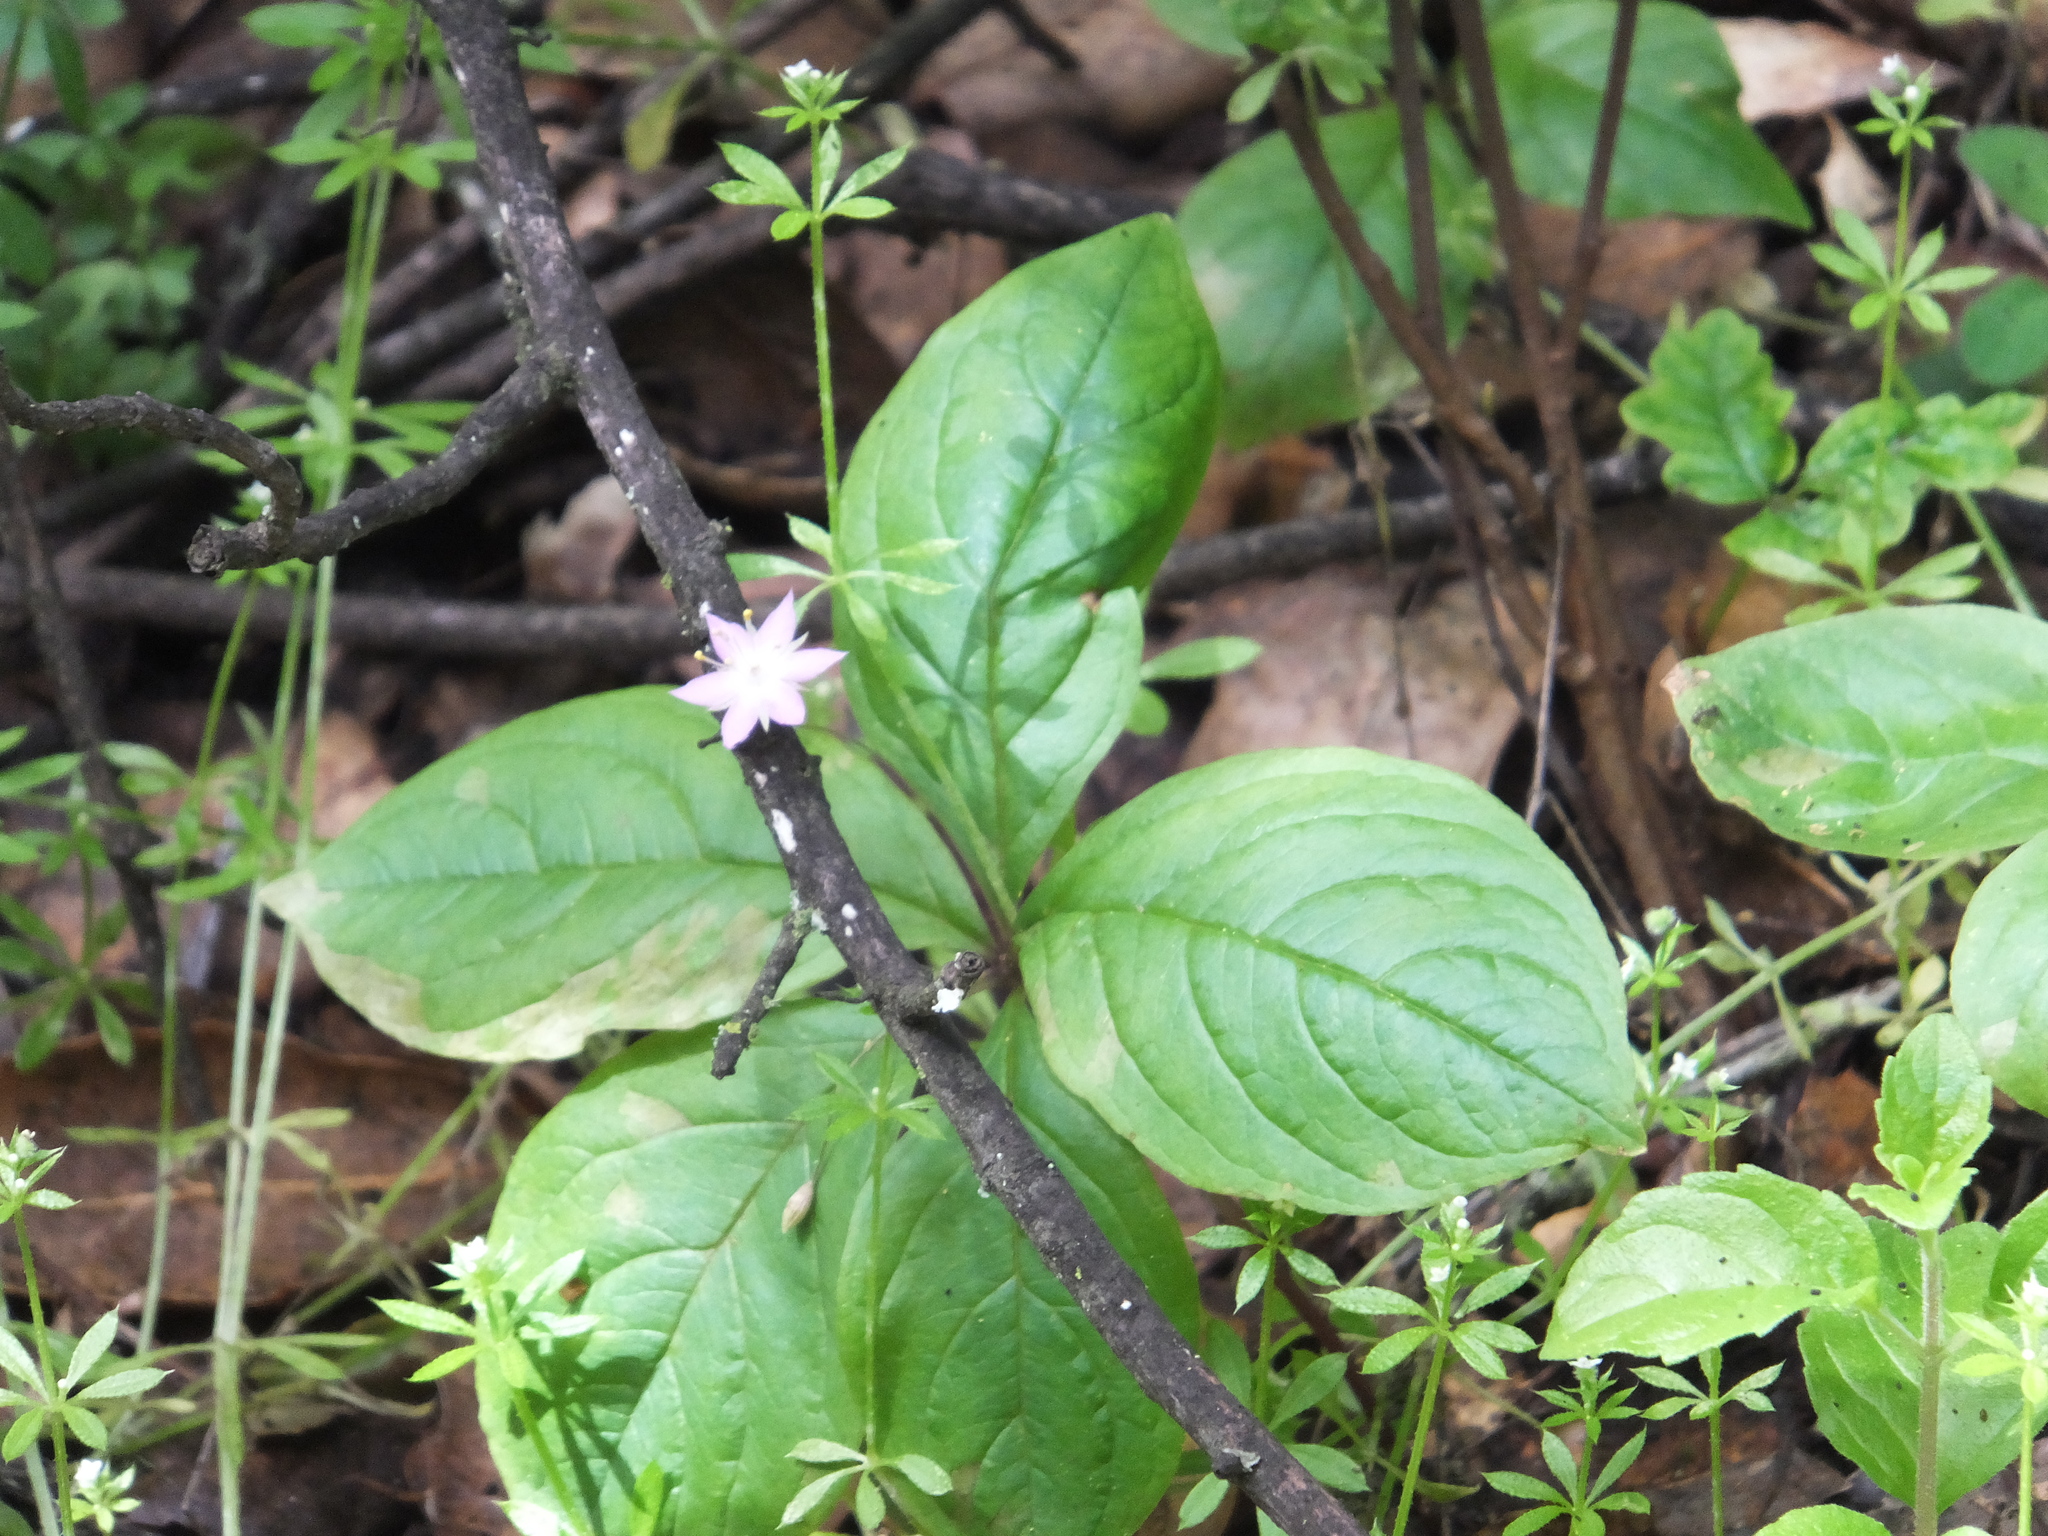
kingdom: Plantae
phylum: Tracheophyta
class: Magnoliopsida
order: Ericales
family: Primulaceae
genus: Lysimachia
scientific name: Lysimachia latifolia
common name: Pacific starflower
